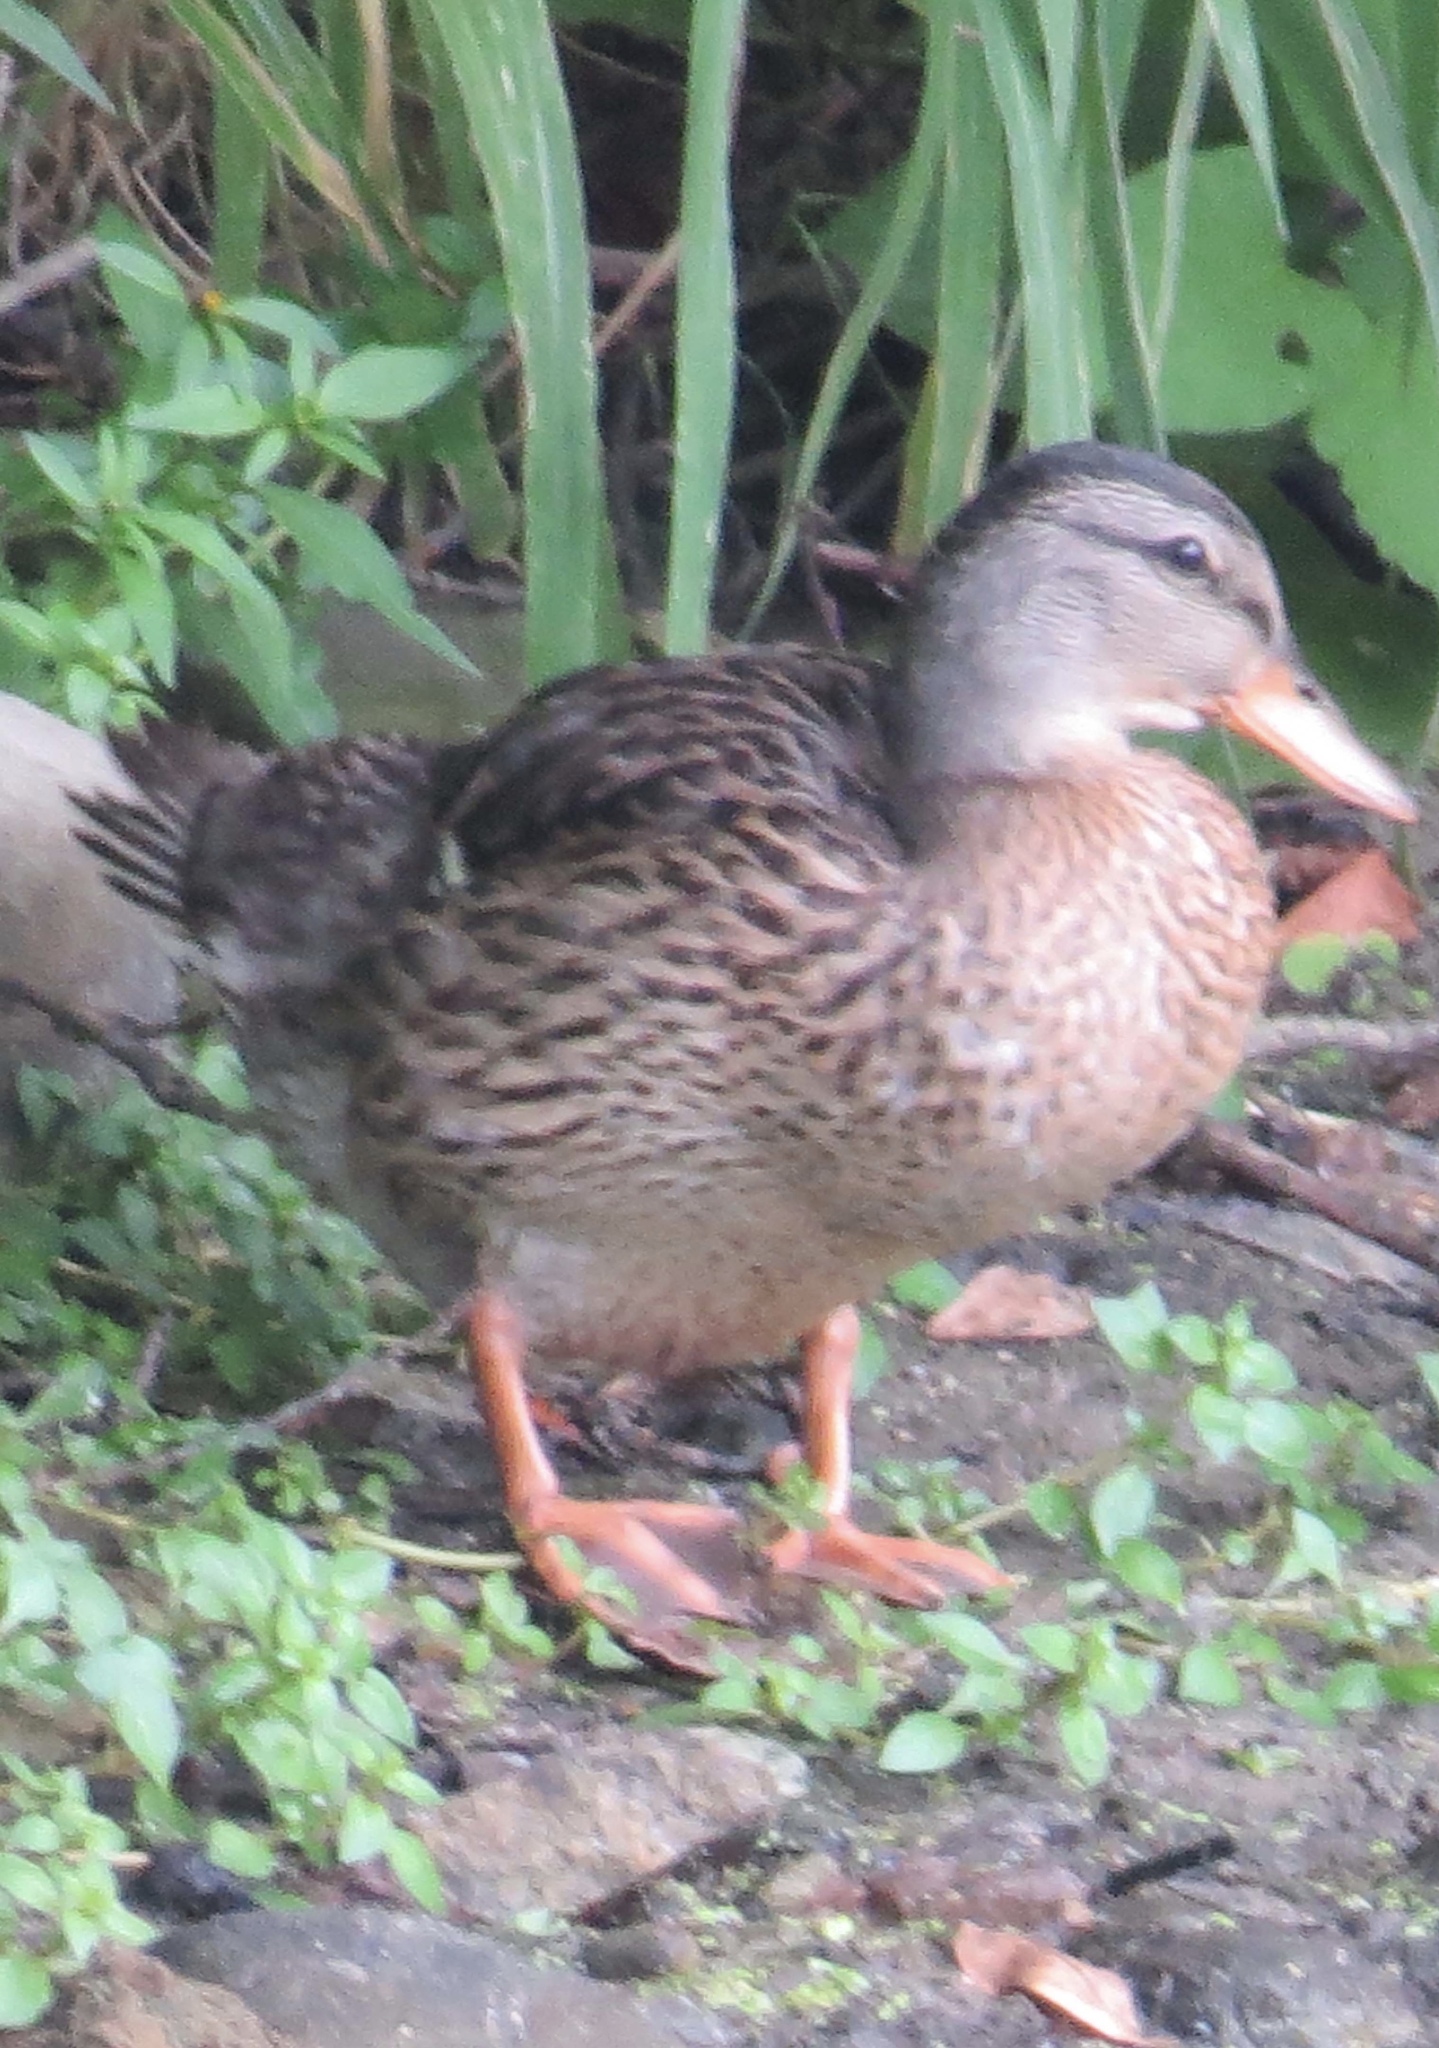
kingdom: Animalia
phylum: Chordata
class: Aves
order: Anseriformes
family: Anatidae
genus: Anas
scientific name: Anas platyrhynchos
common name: Mallard
